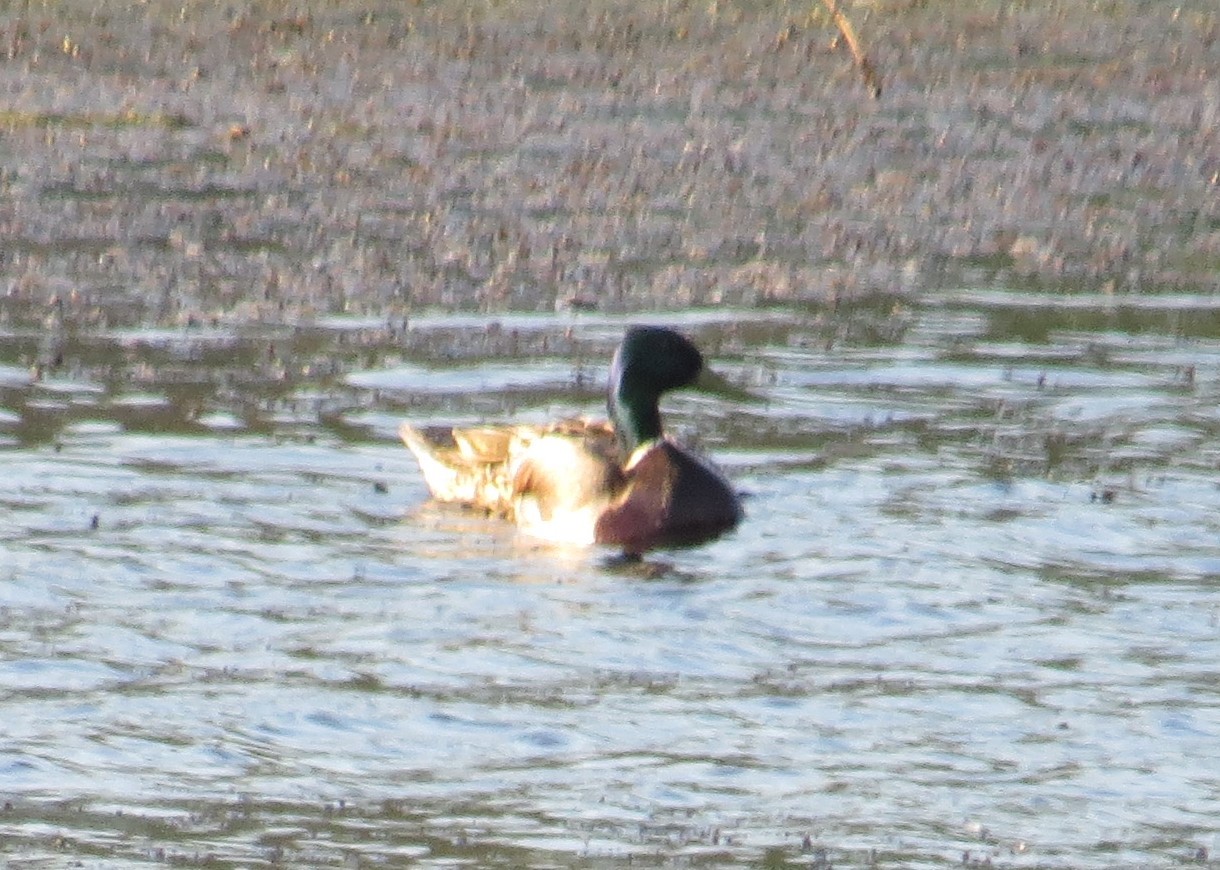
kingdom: Animalia
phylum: Chordata
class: Aves
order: Anseriformes
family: Anatidae
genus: Anas
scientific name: Anas platyrhynchos
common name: Mallard
